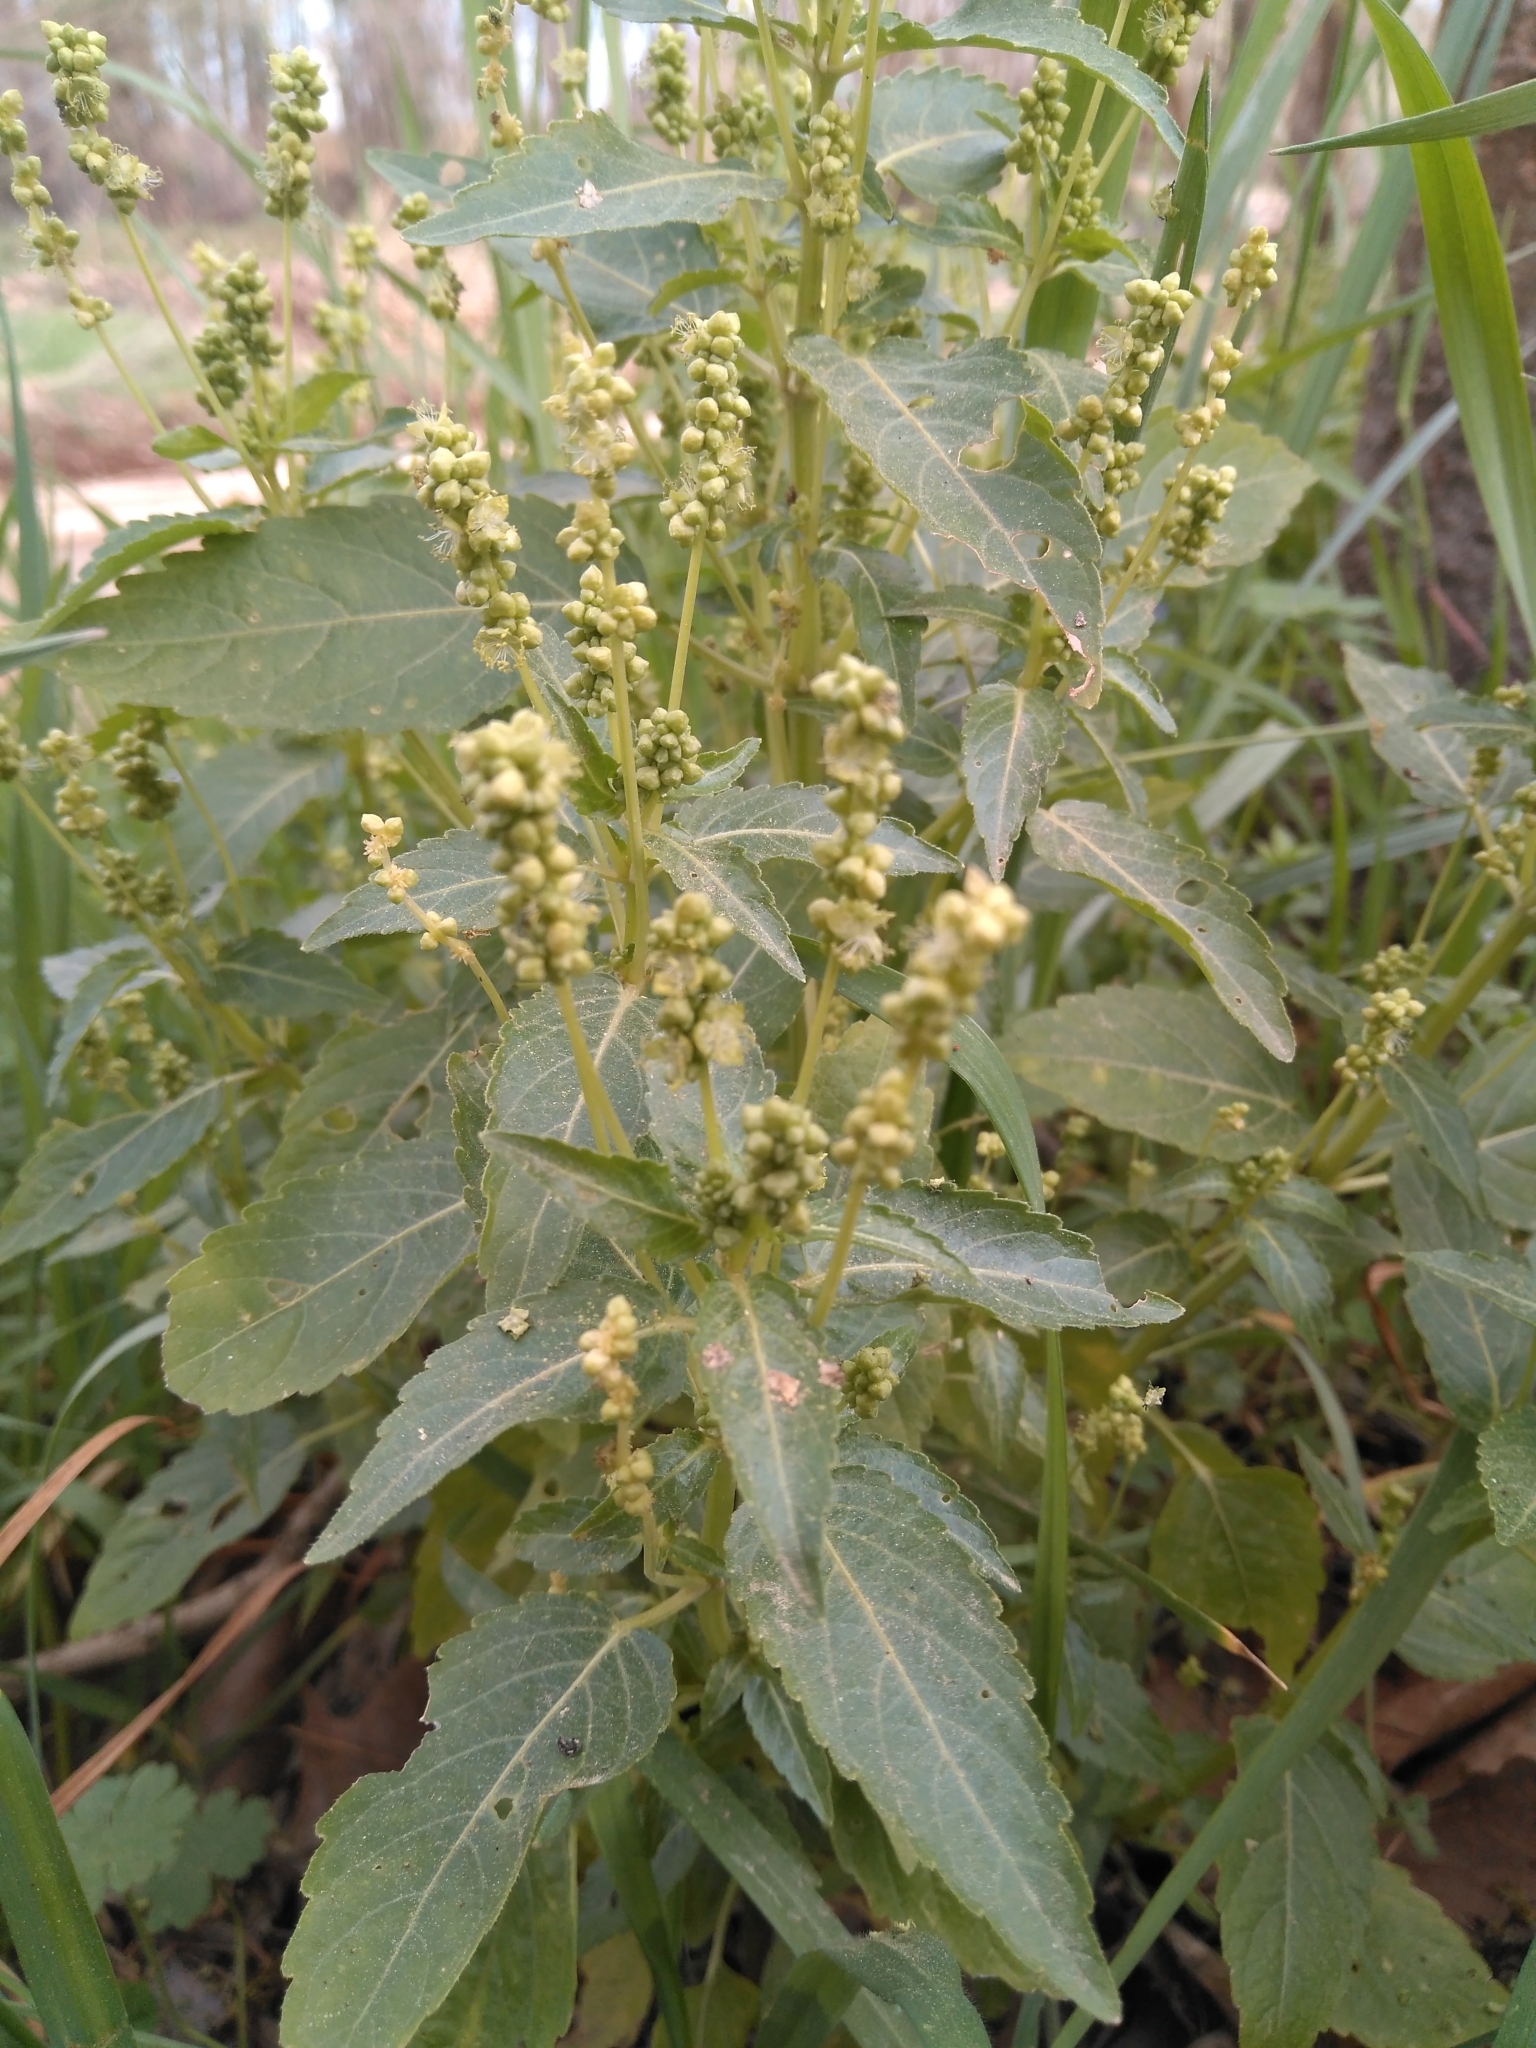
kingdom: Plantae
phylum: Tracheophyta
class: Magnoliopsida
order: Malpighiales
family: Euphorbiaceae
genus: Mercurialis
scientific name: Mercurialis annua
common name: Annual mercury
